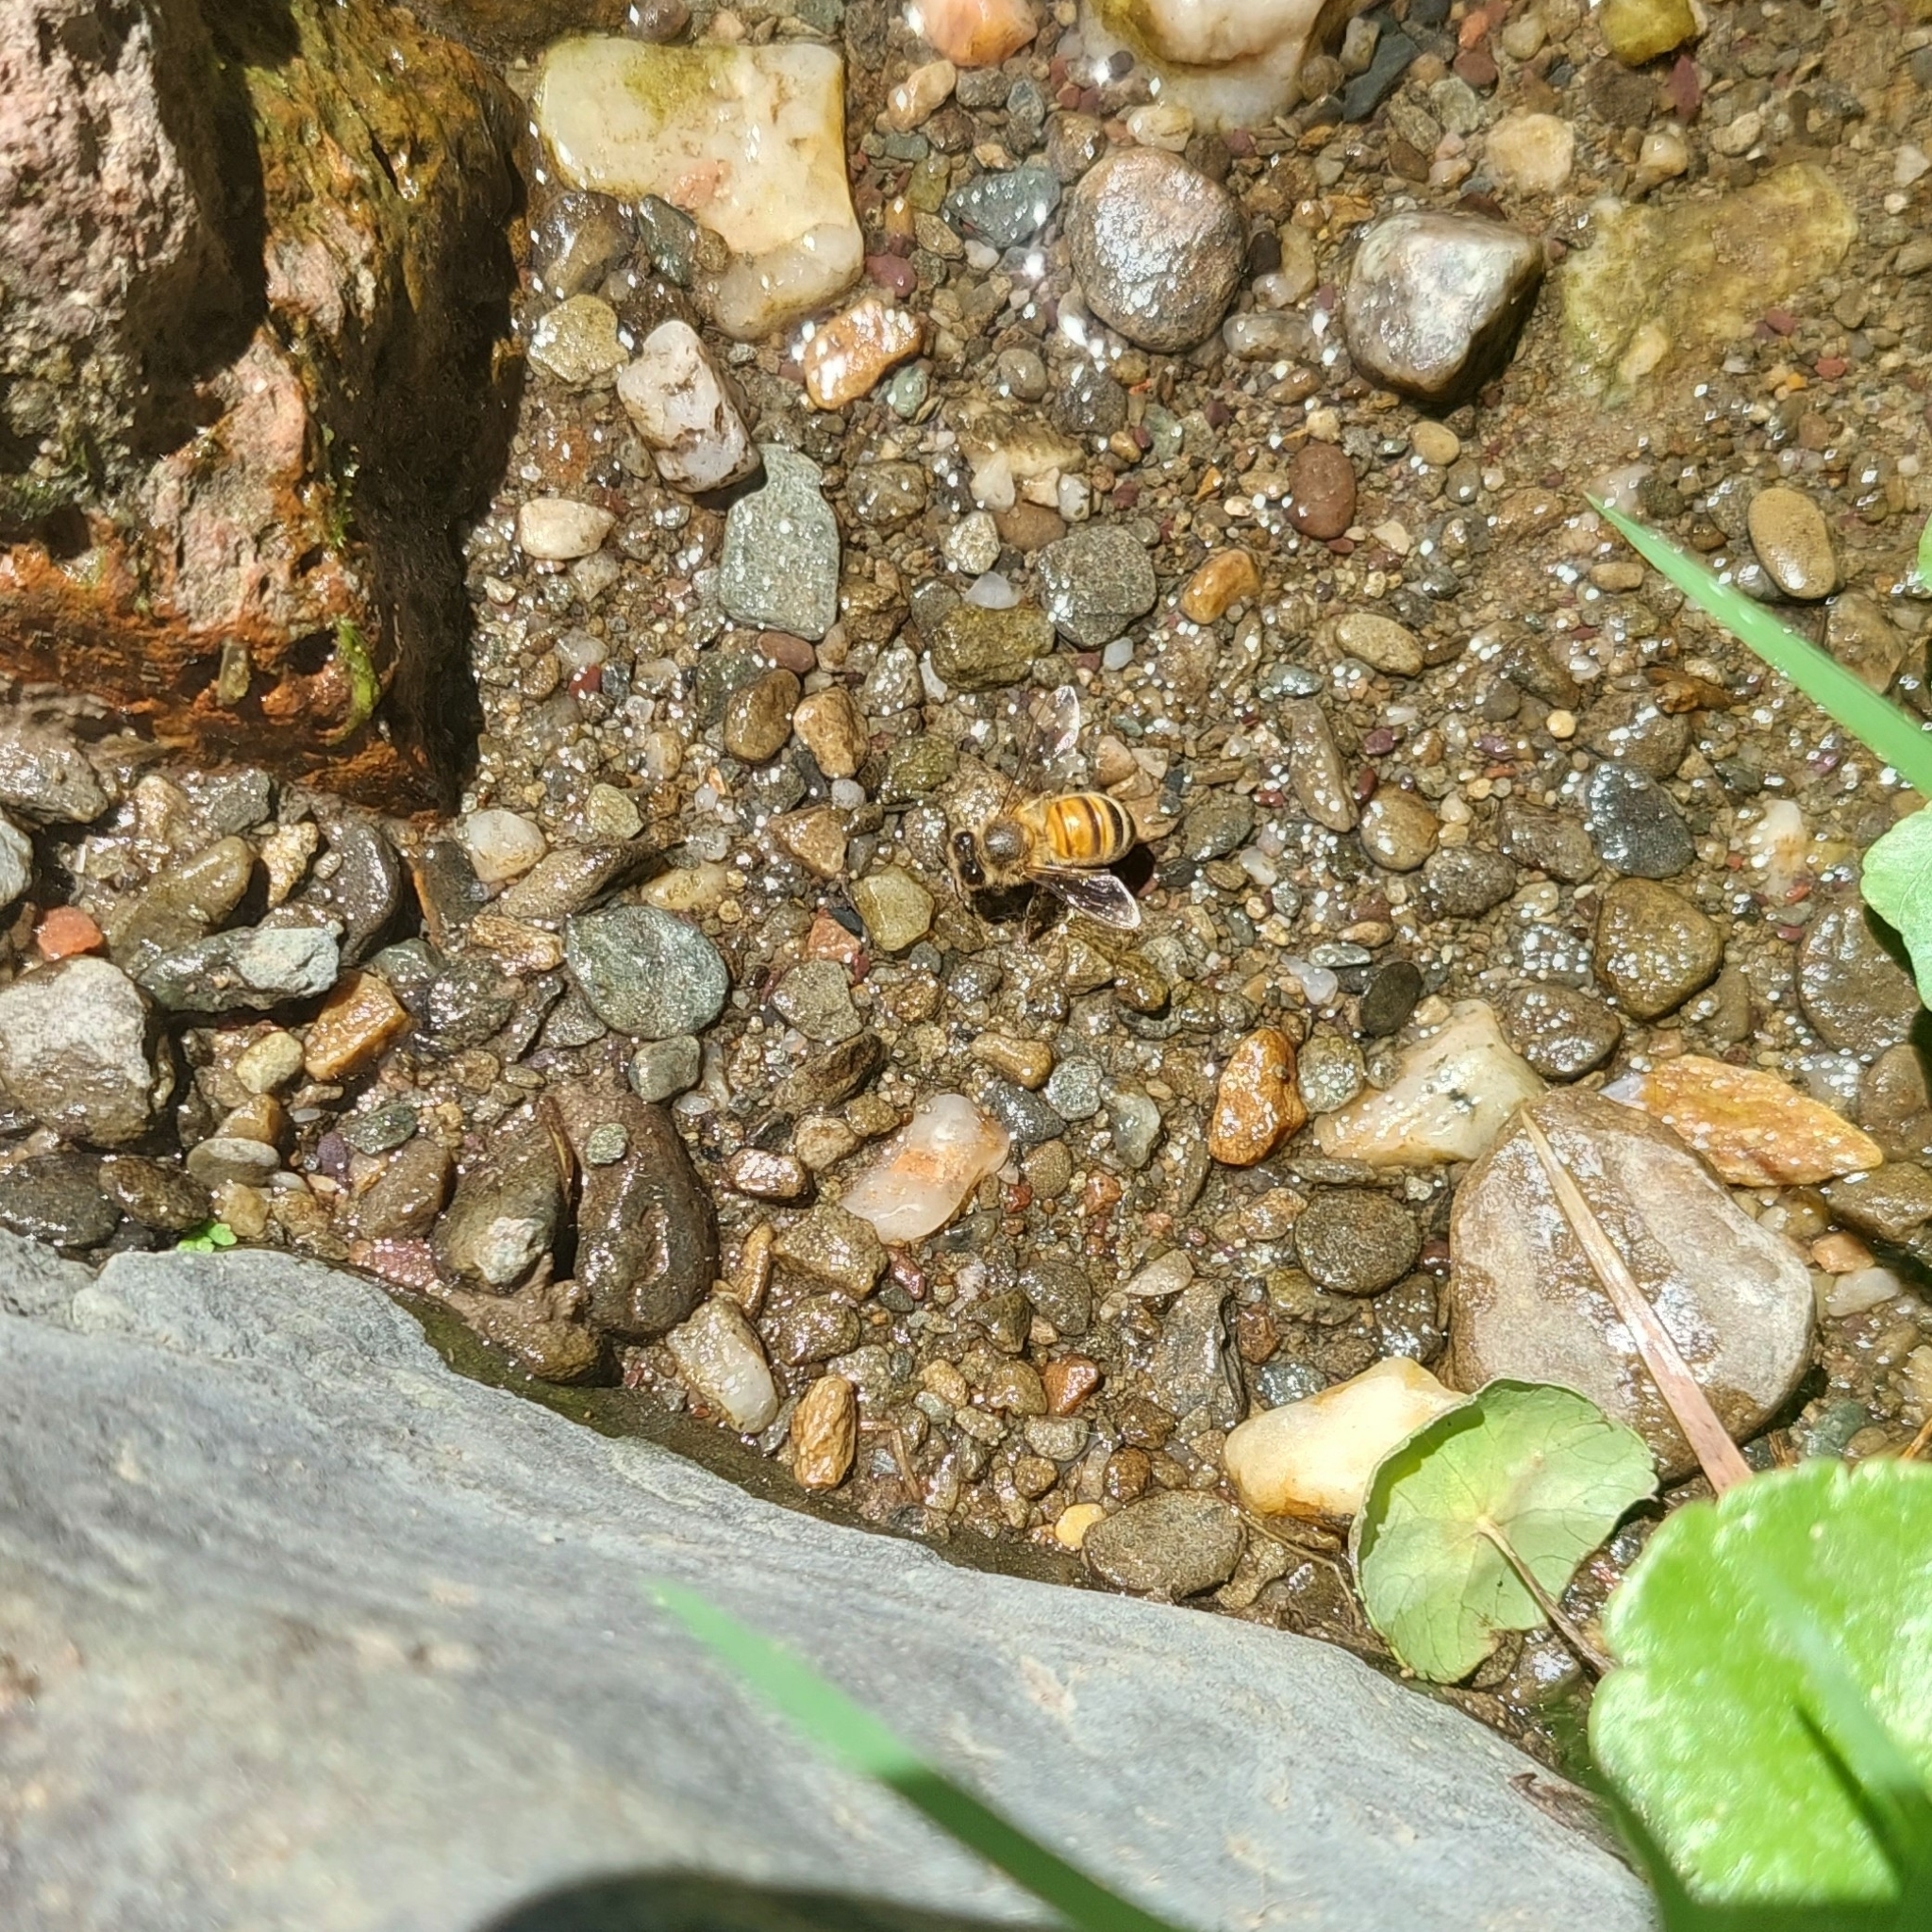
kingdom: Animalia
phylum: Arthropoda
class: Insecta
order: Hymenoptera
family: Apidae
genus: Apis
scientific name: Apis mellifera
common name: Honey bee
